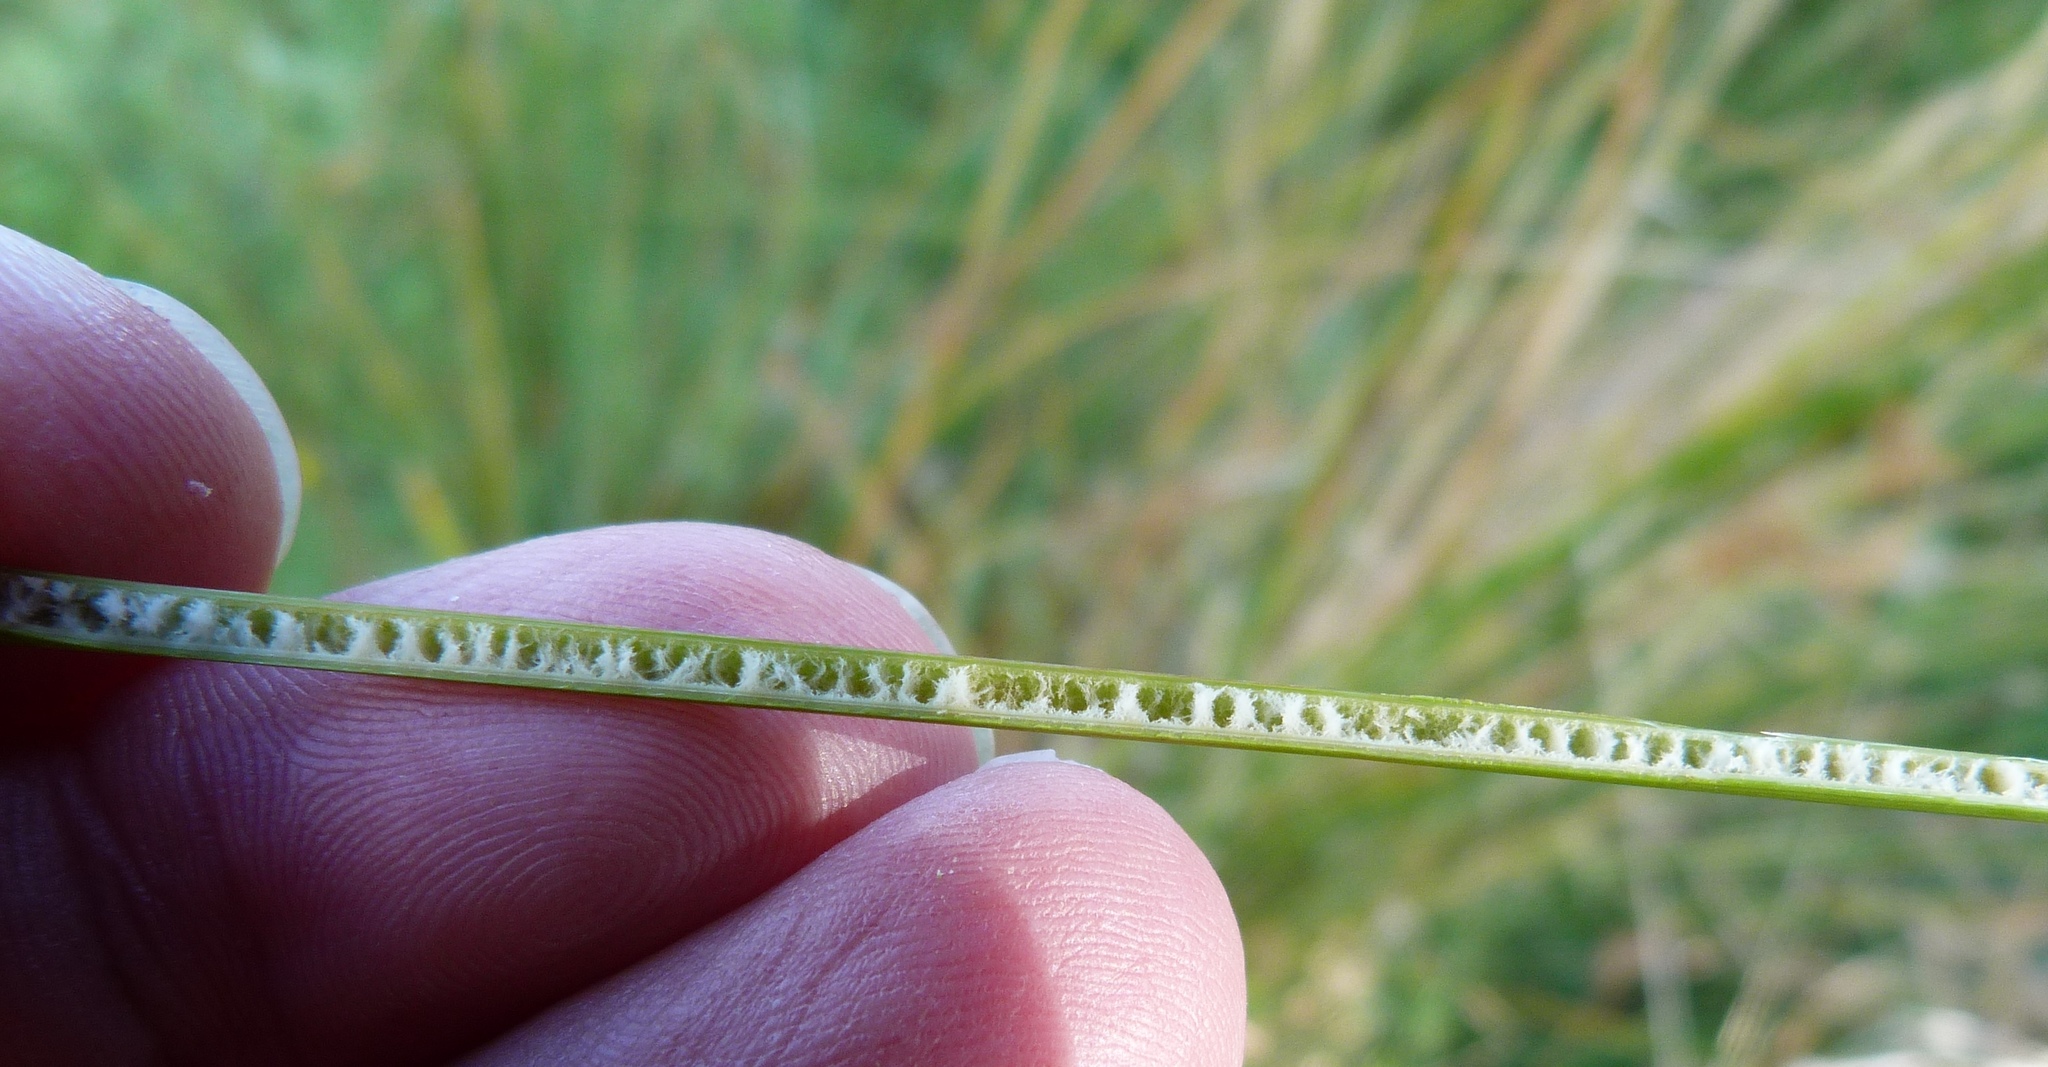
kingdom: Plantae
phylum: Tracheophyta
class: Liliopsida
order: Poales
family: Juncaceae
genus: Juncus
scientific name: Juncus sarophorus
